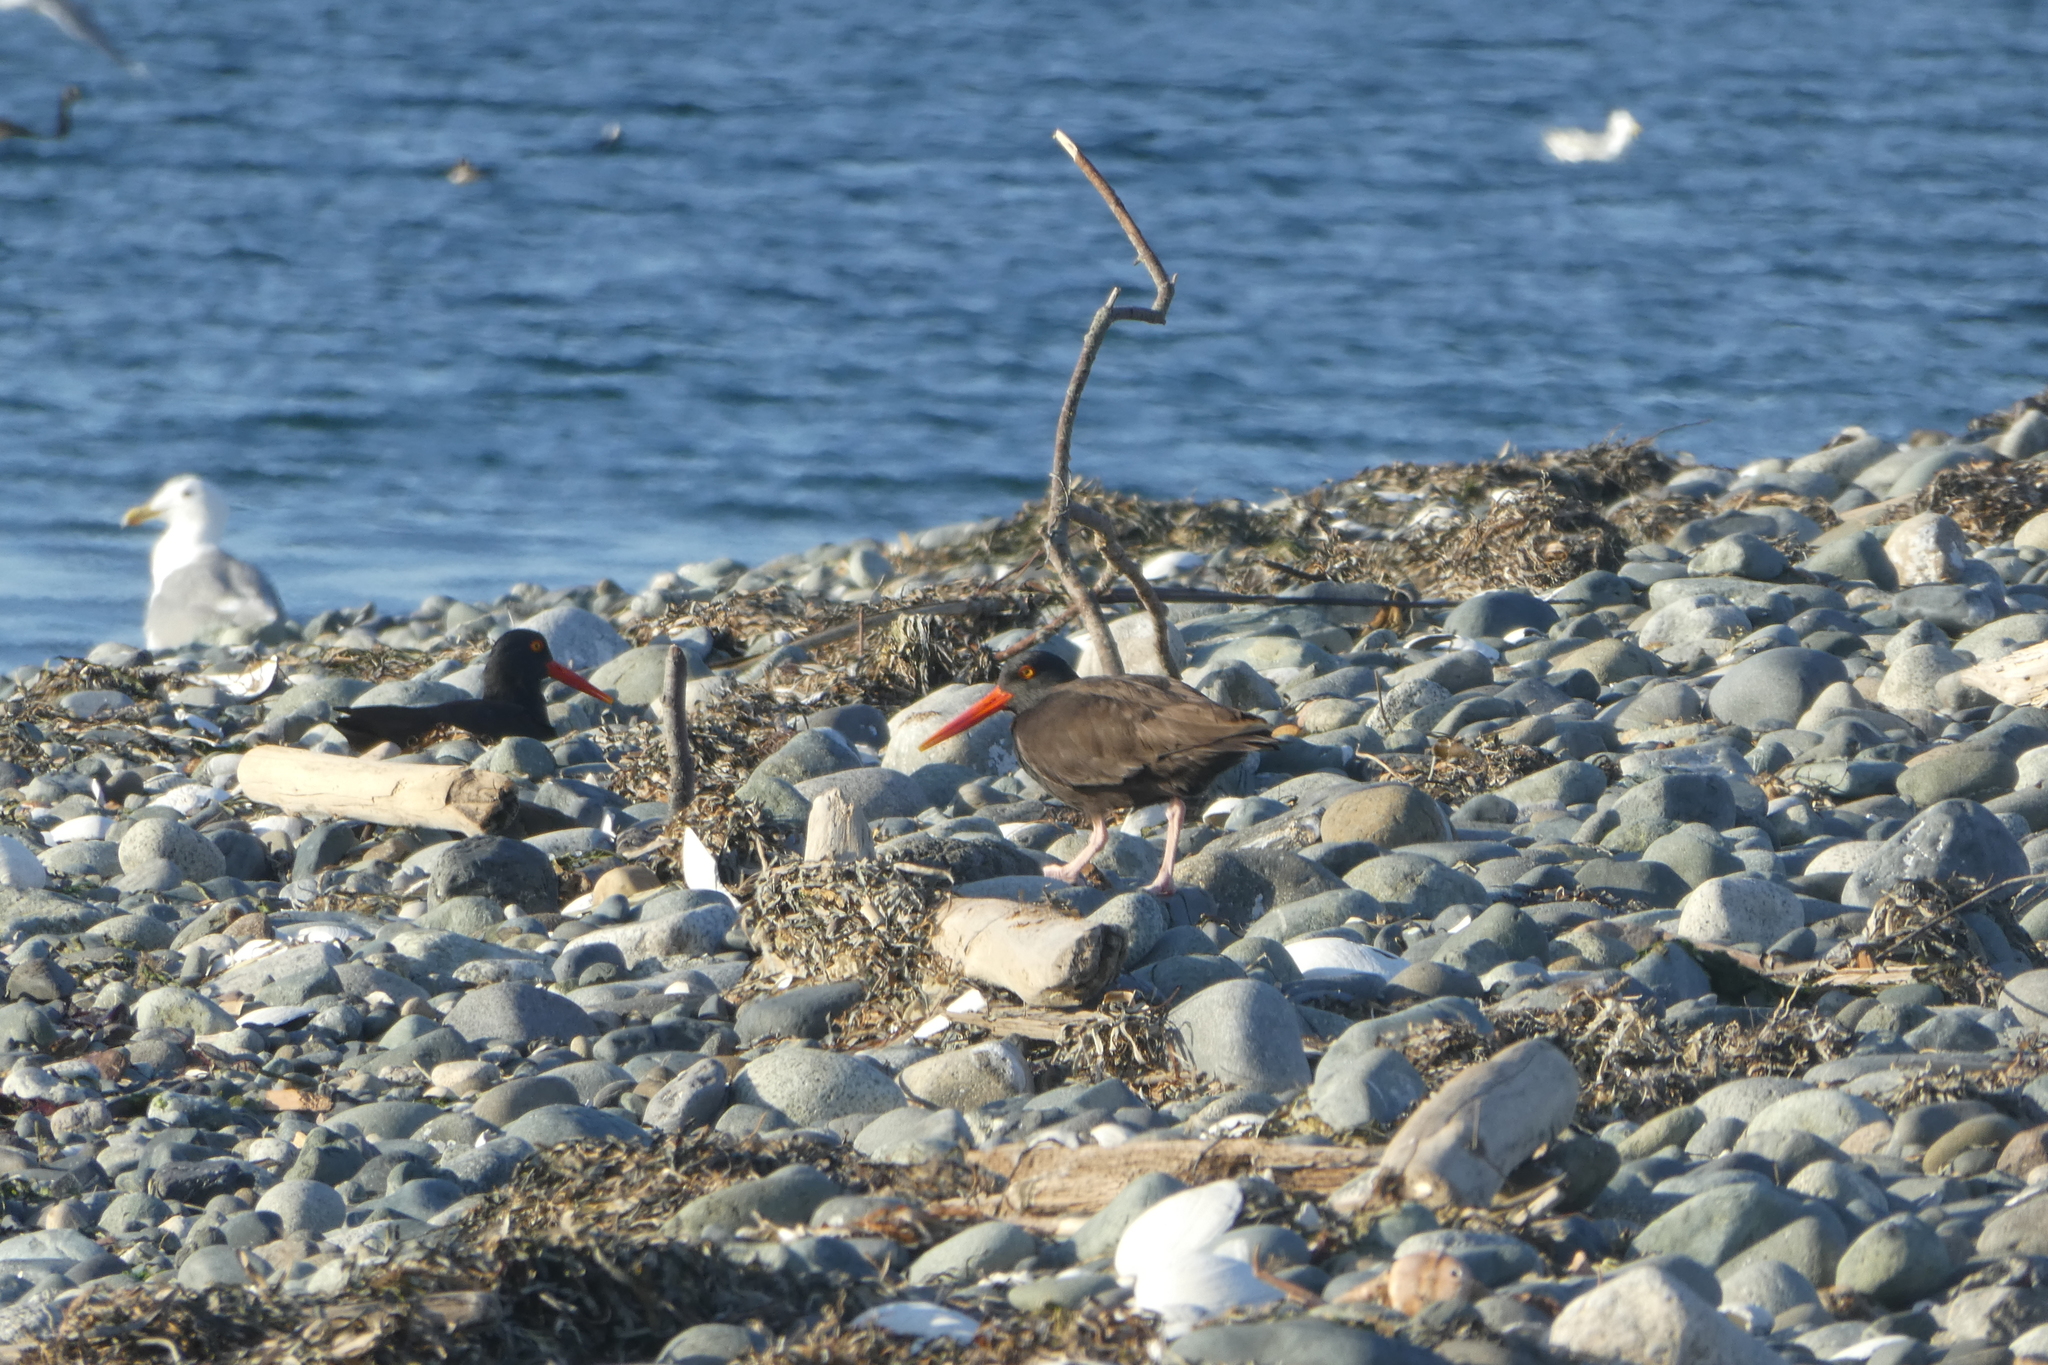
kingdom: Animalia
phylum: Chordata
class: Aves
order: Charadriiformes
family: Haematopodidae
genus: Haematopus
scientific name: Haematopus bachmani
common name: Black oystercatcher
